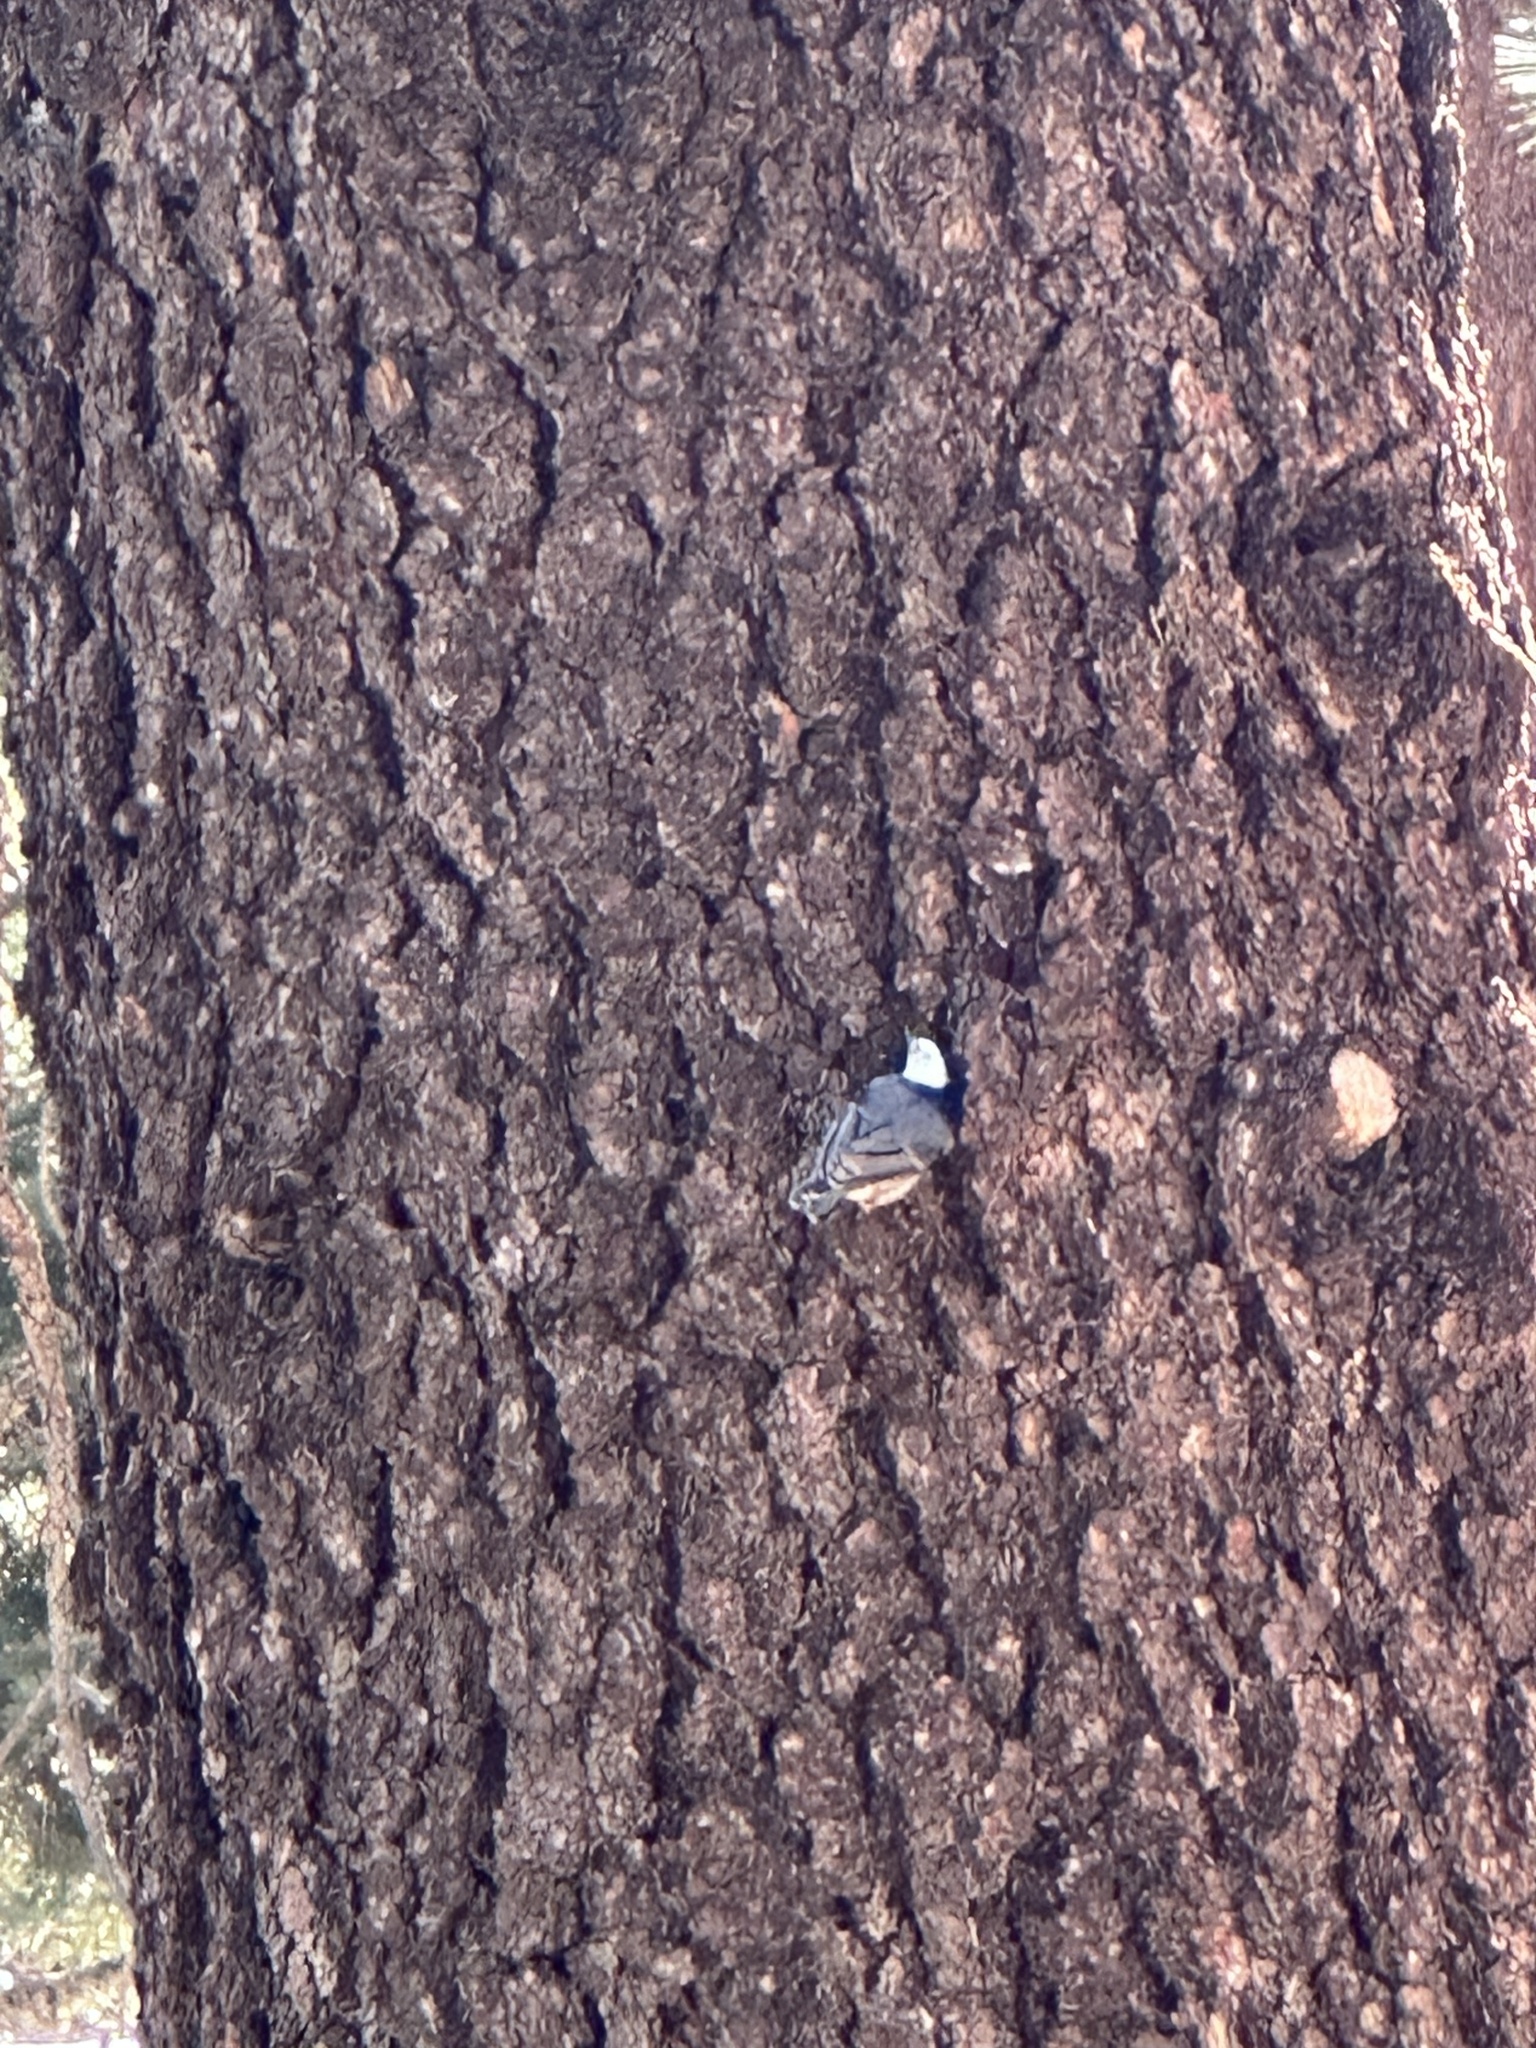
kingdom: Animalia
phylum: Chordata
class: Aves
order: Passeriformes
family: Sittidae
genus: Sitta
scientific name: Sitta carolinensis
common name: White-breasted nuthatch
